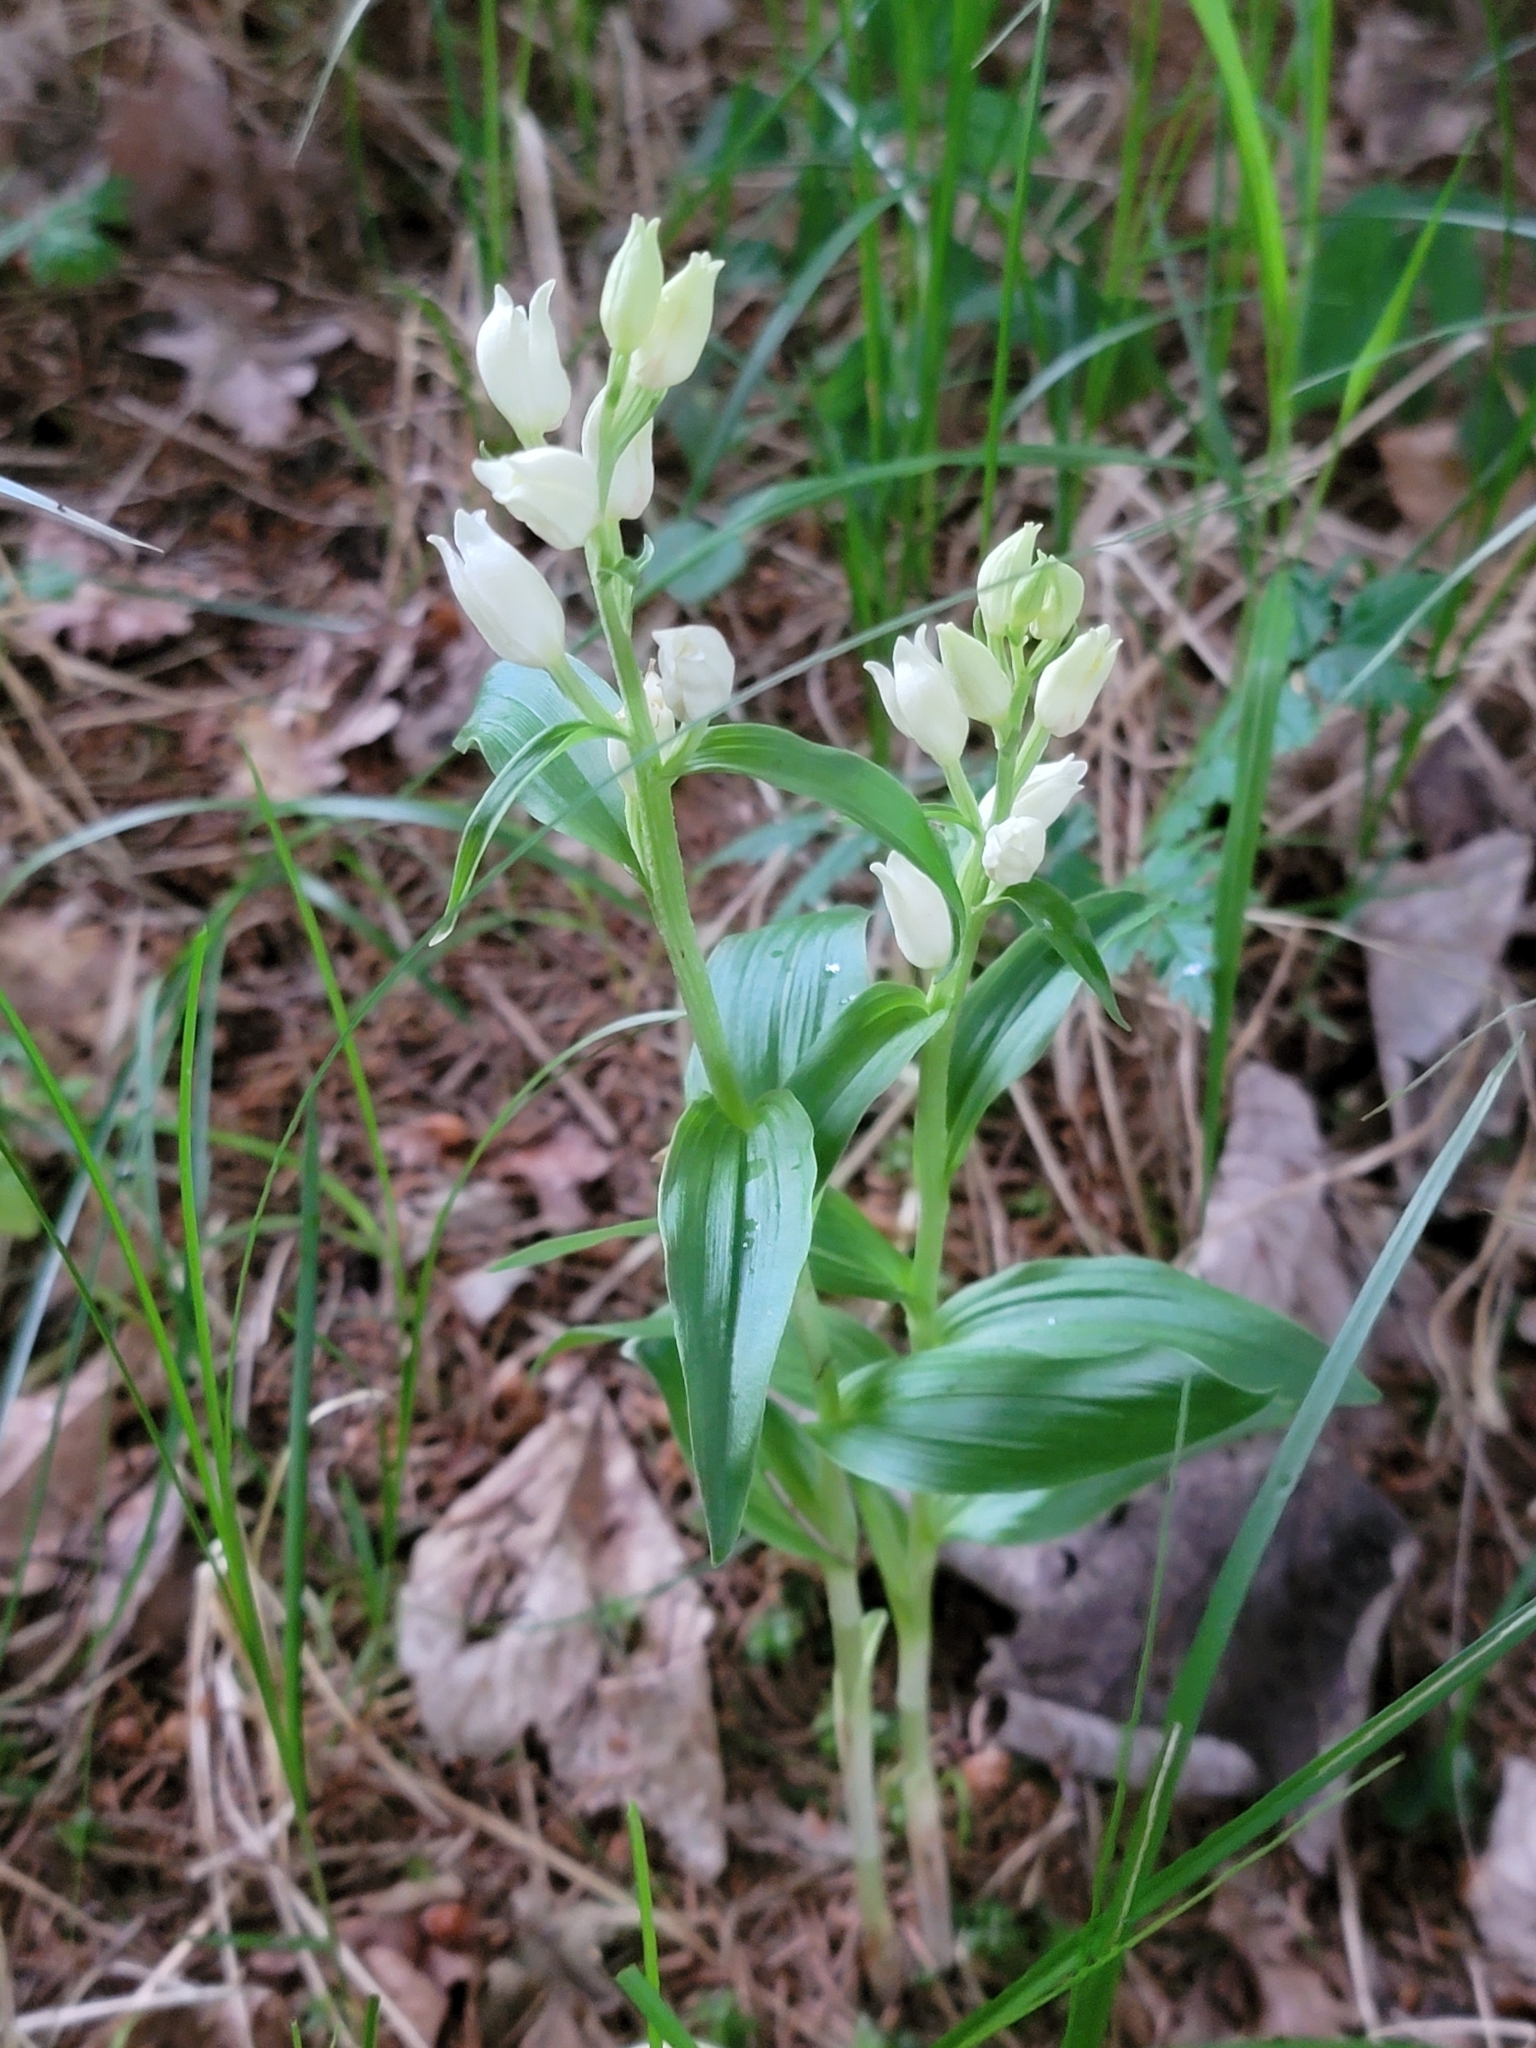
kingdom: Plantae
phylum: Tracheophyta
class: Liliopsida
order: Asparagales
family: Orchidaceae
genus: Cephalanthera
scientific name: Cephalanthera damasonium
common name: White helleborine
